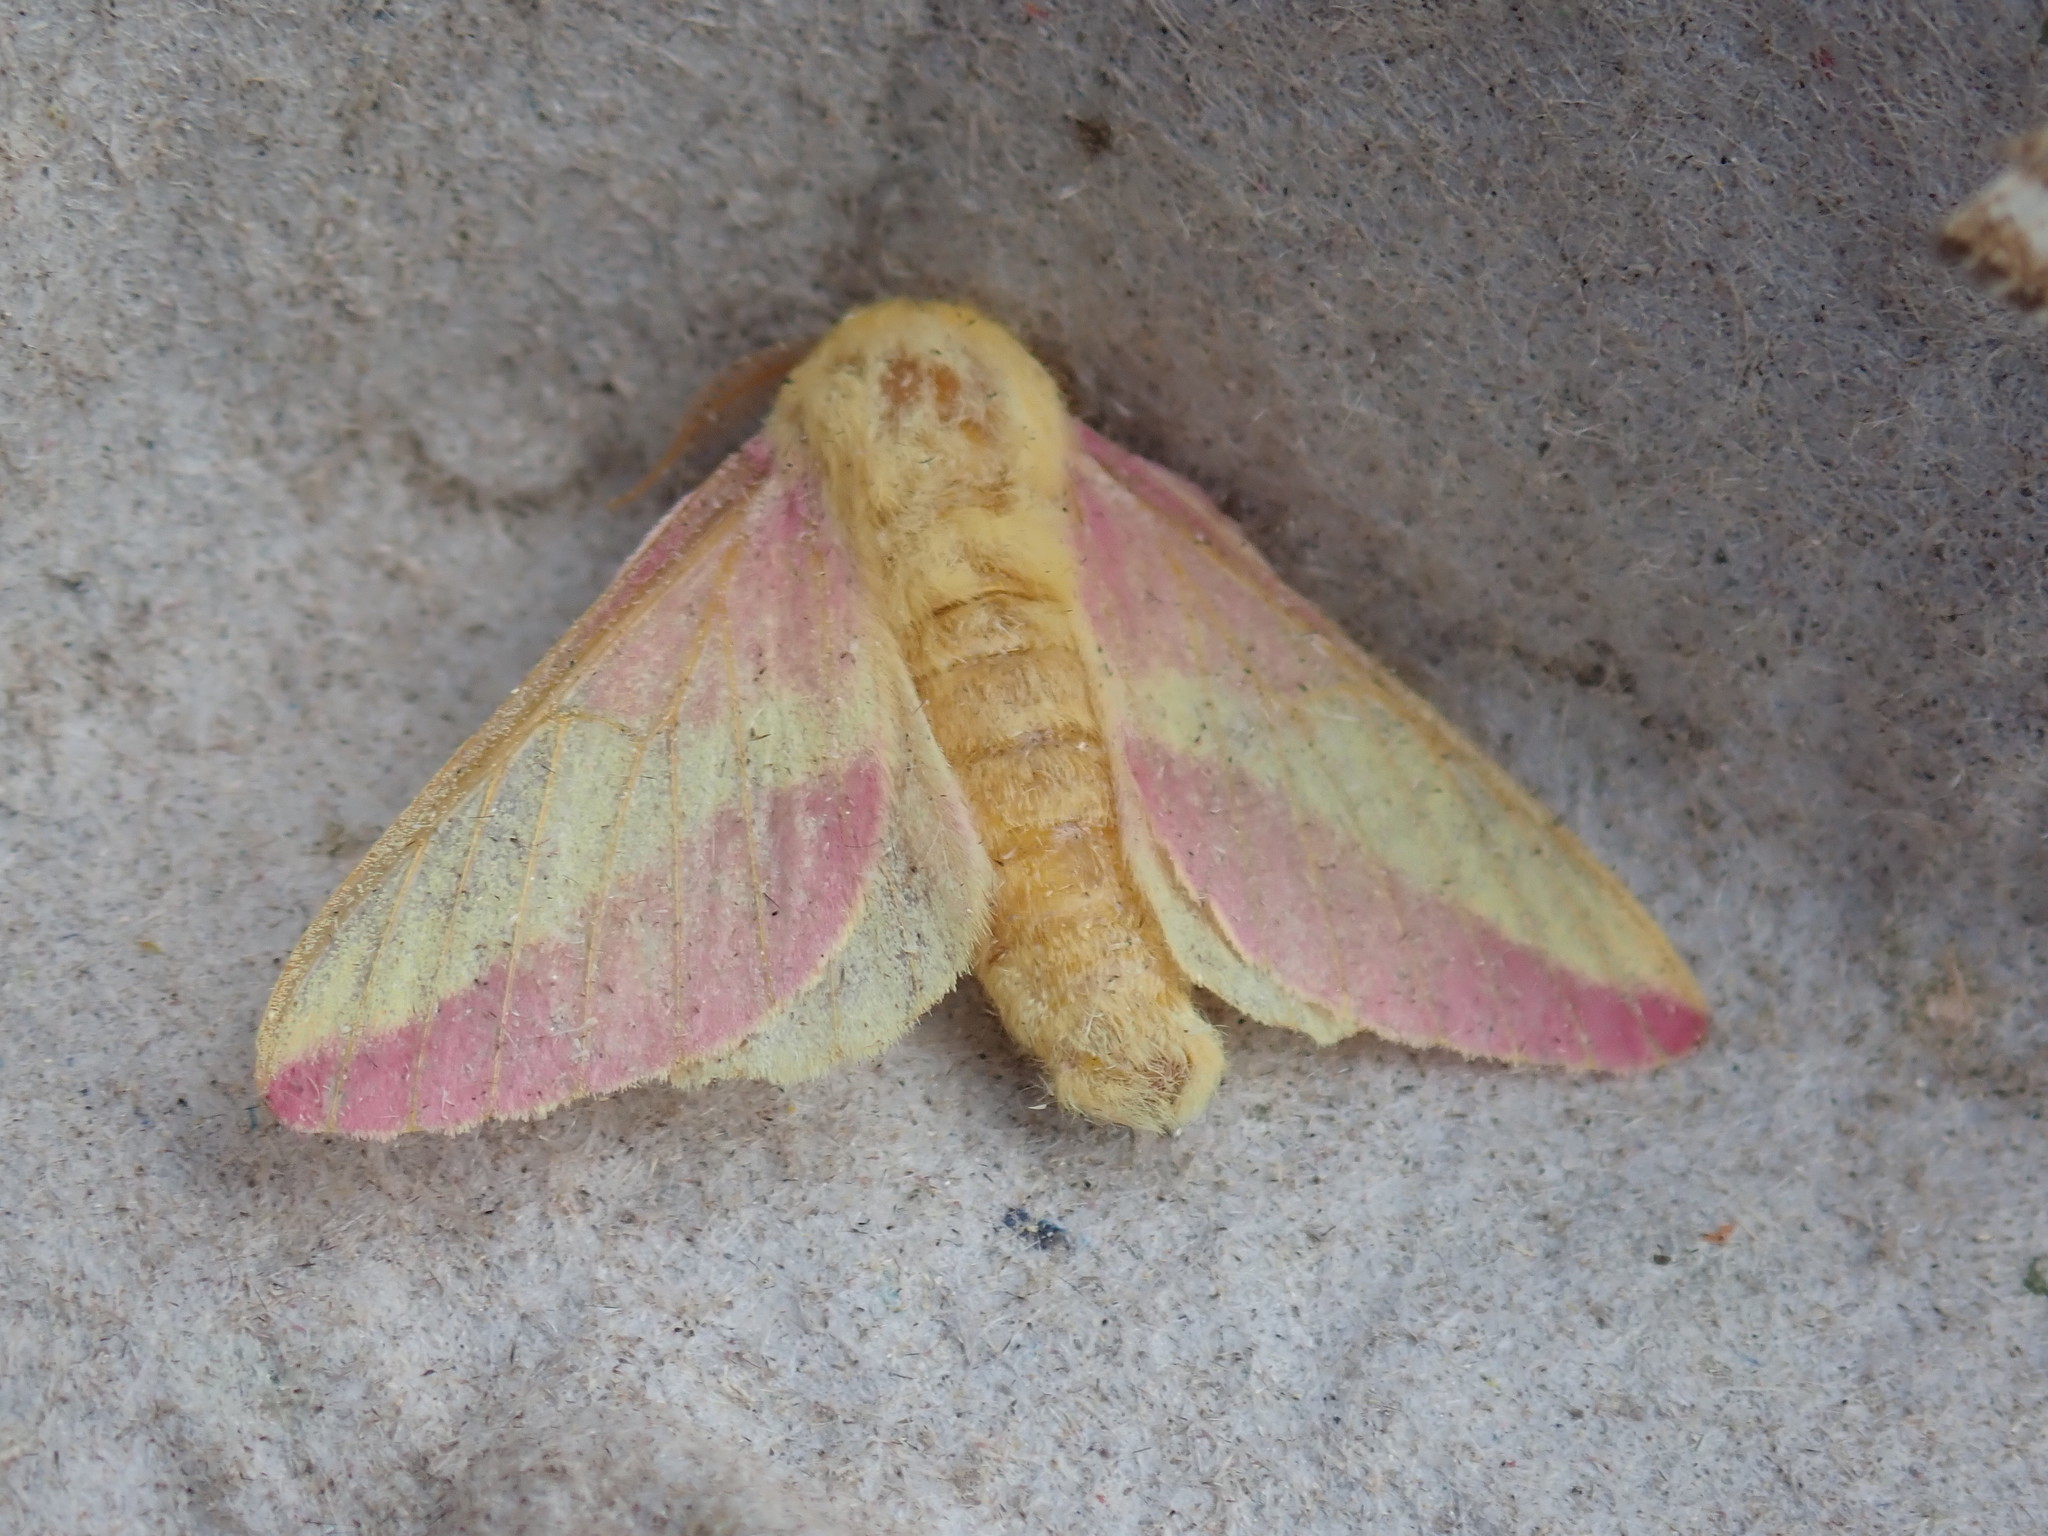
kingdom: Animalia
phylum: Arthropoda
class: Insecta
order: Lepidoptera
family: Saturniidae
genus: Dryocampa
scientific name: Dryocampa rubicunda
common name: Rosy maple moth
